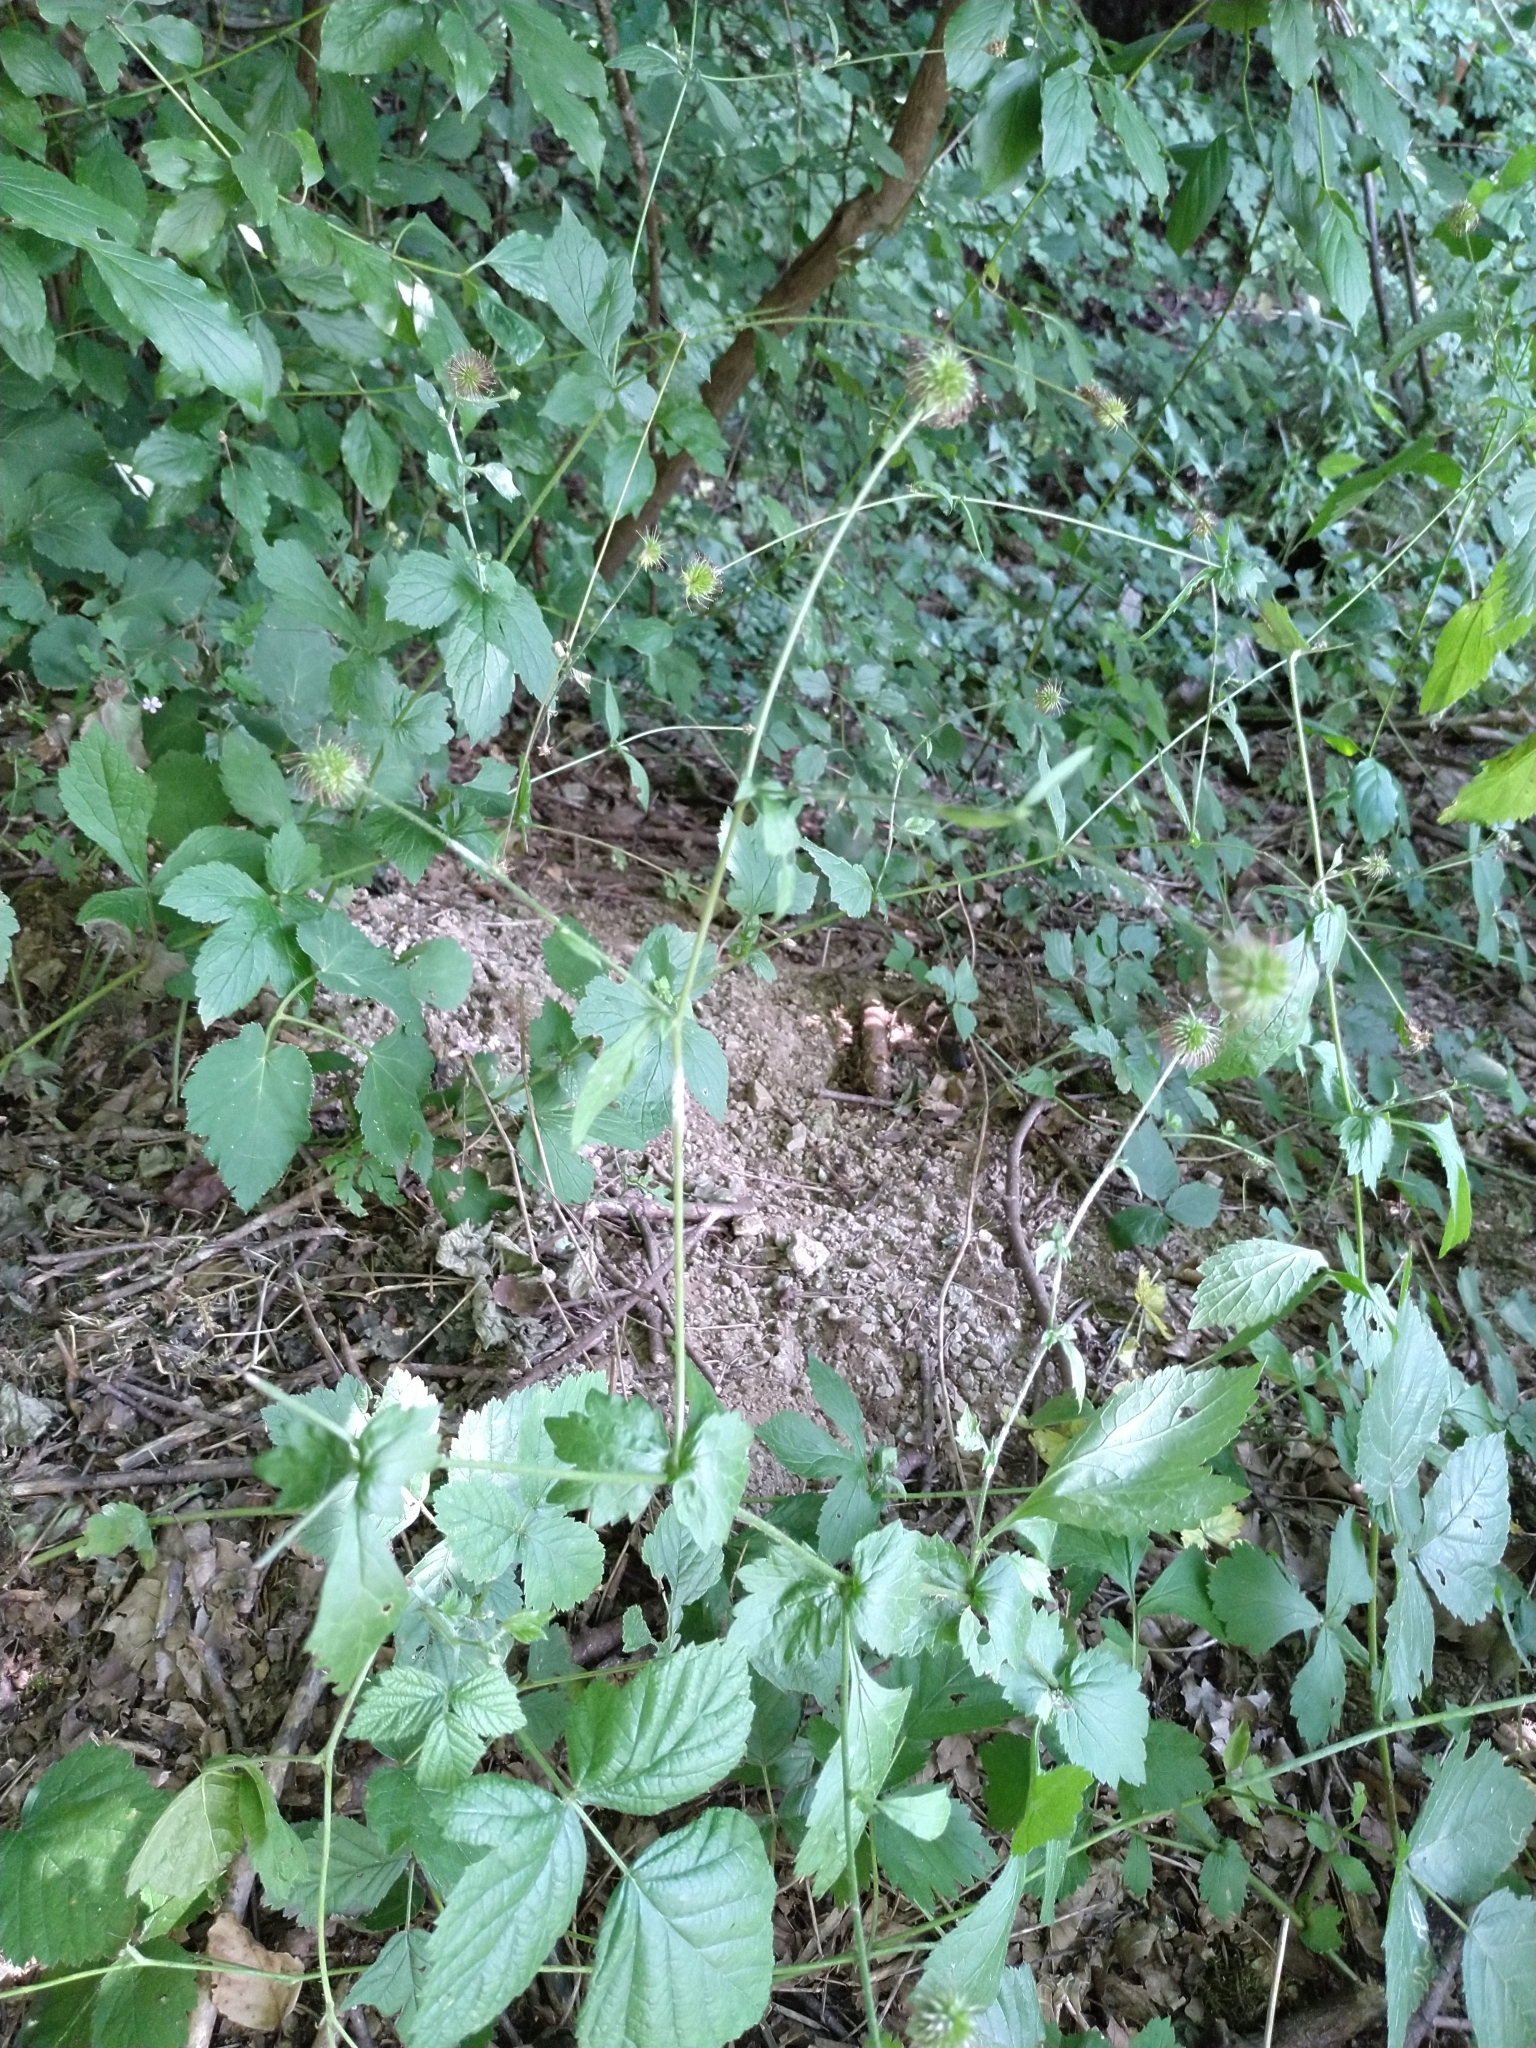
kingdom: Plantae
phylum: Tracheophyta
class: Magnoliopsida
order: Rosales
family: Rosaceae
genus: Geum
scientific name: Geum urbanum
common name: Wood avens
